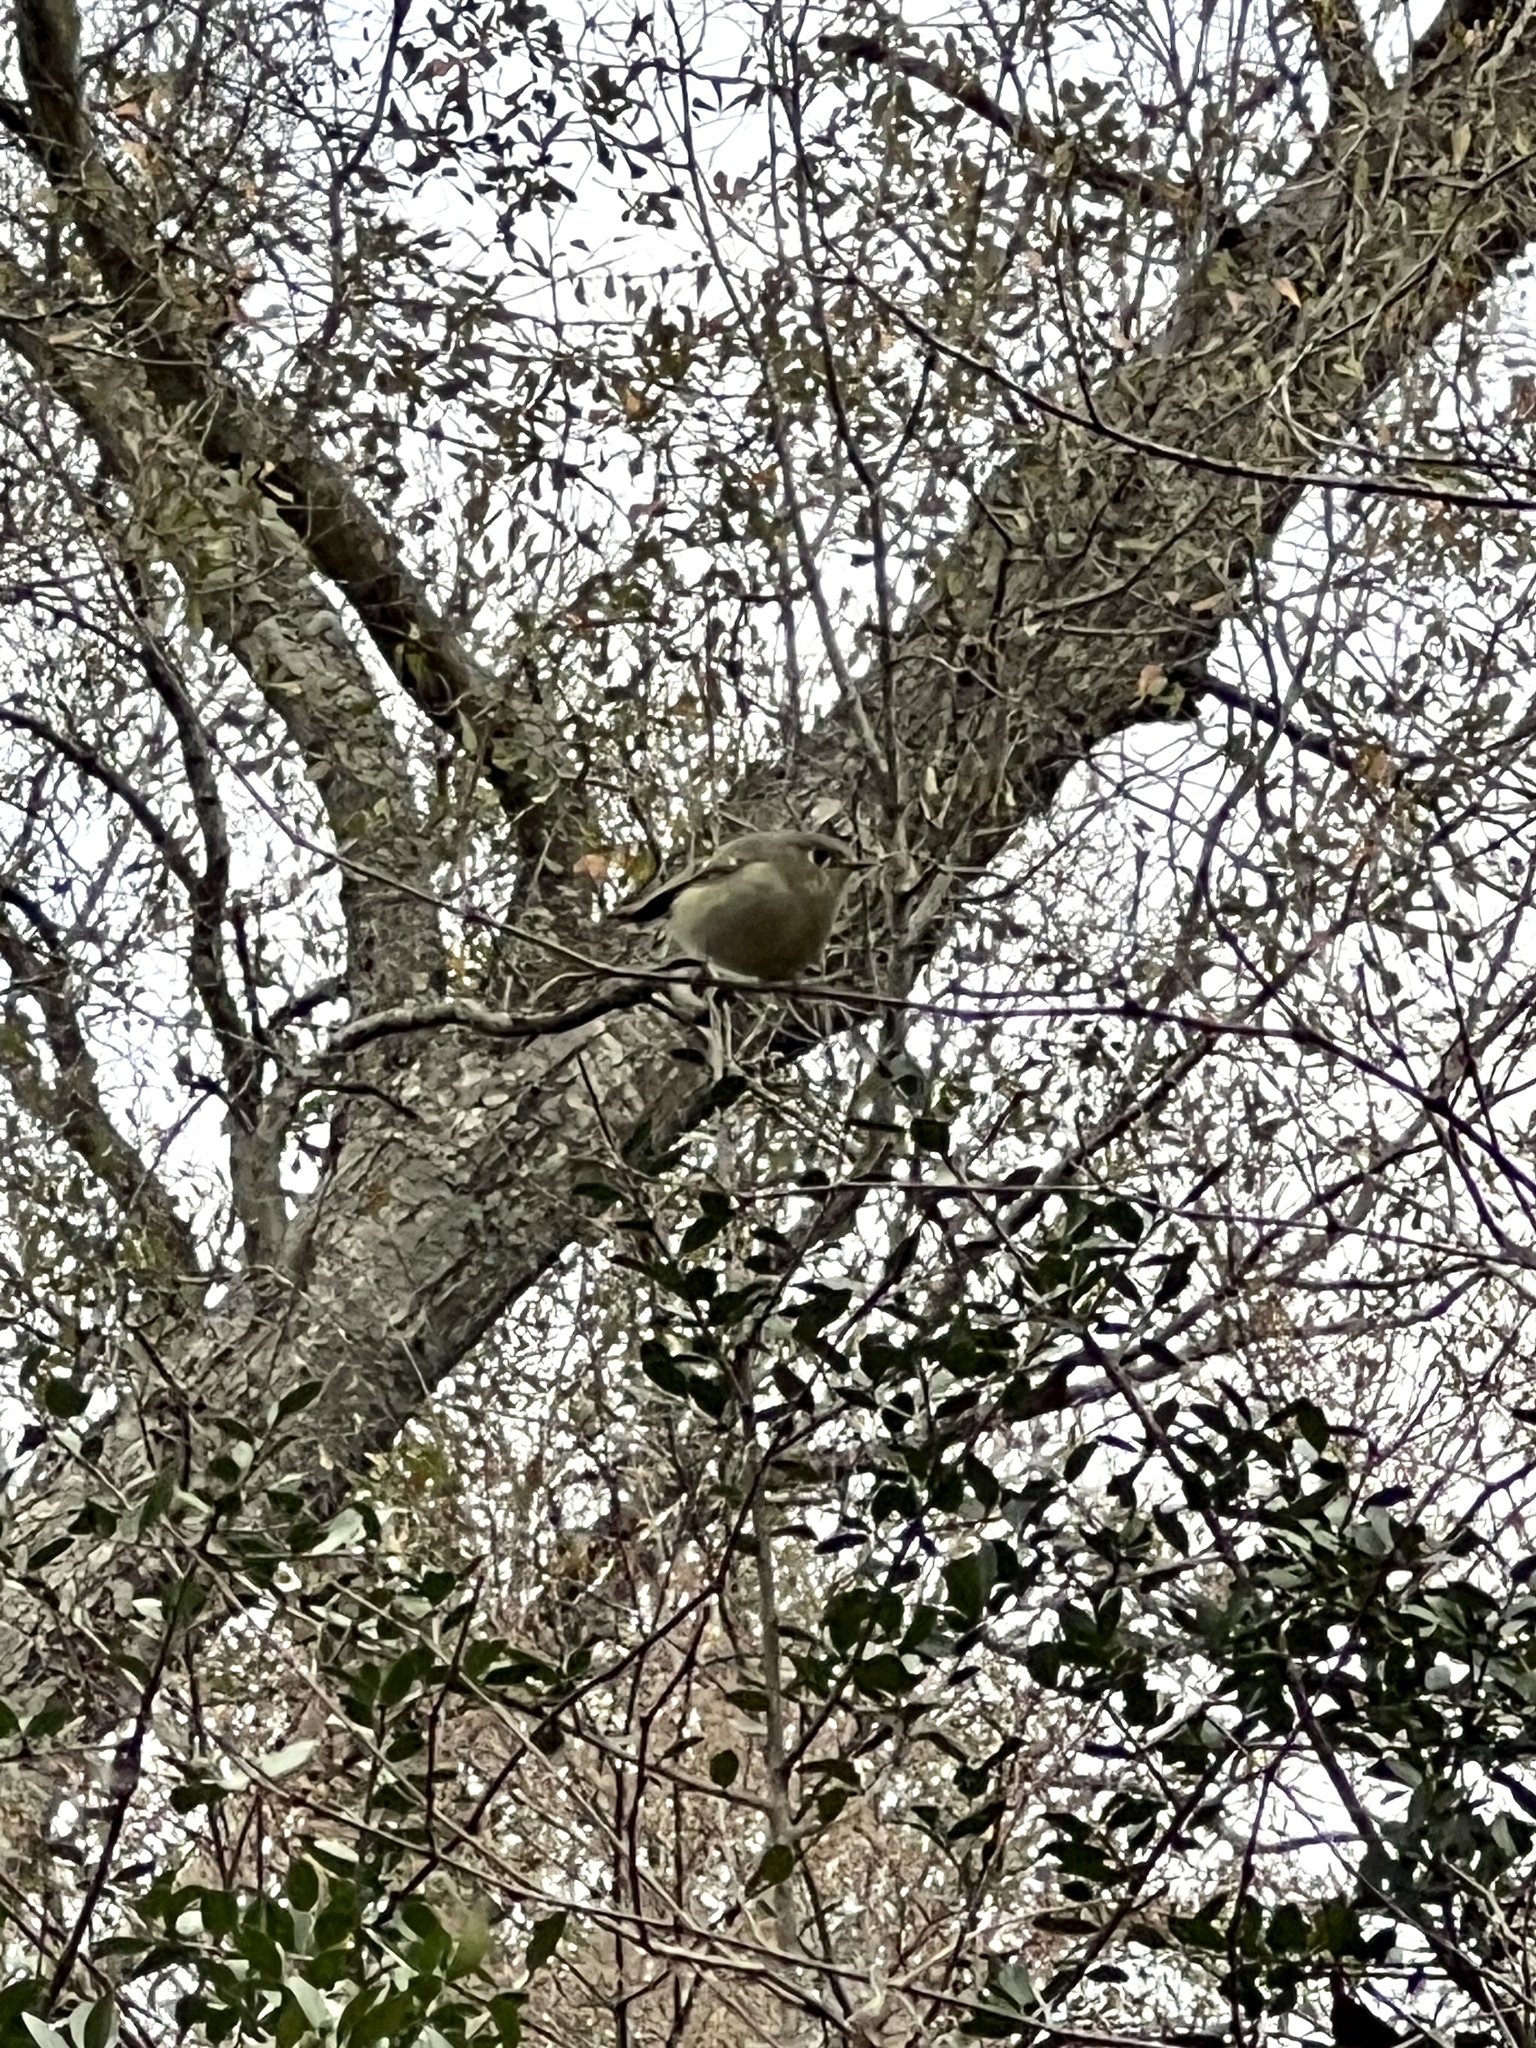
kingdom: Animalia
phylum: Chordata
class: Aves
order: Passeriformes
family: Regulidae
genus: Regulus
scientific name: Regulus calendula
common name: Ruby-crowned kinglet
